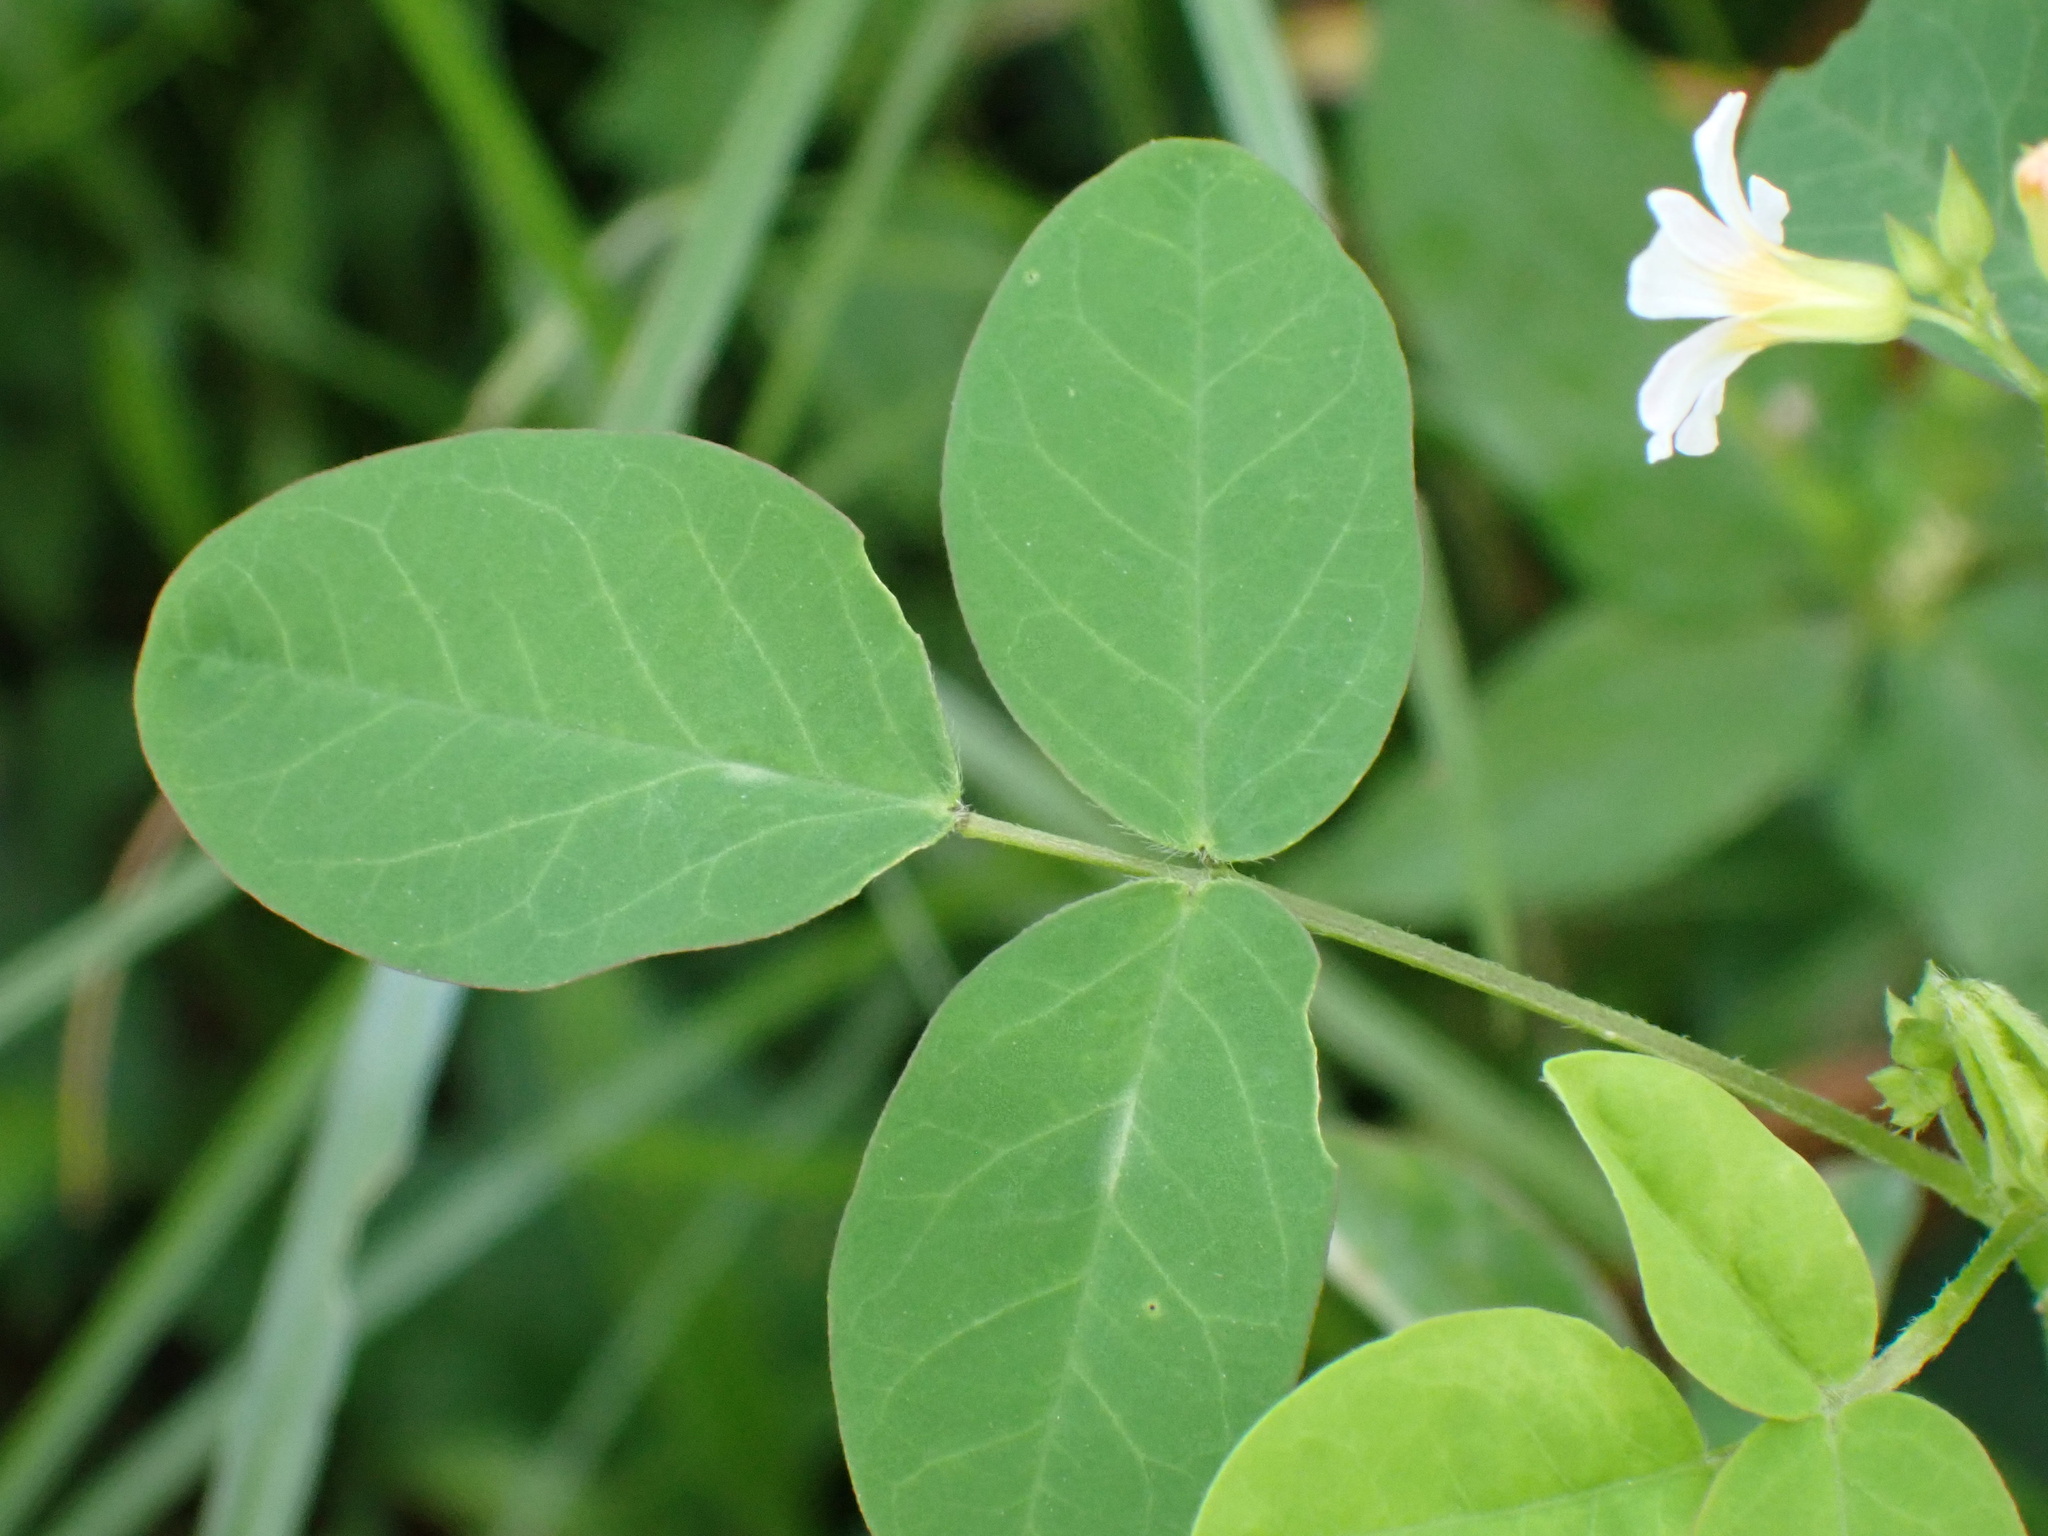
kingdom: Plantae
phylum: Tracheophyta
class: Magnoliopsida
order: Oxalidales
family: Oxalidaceae
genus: Oxalis
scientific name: Oxalis barrelieri
